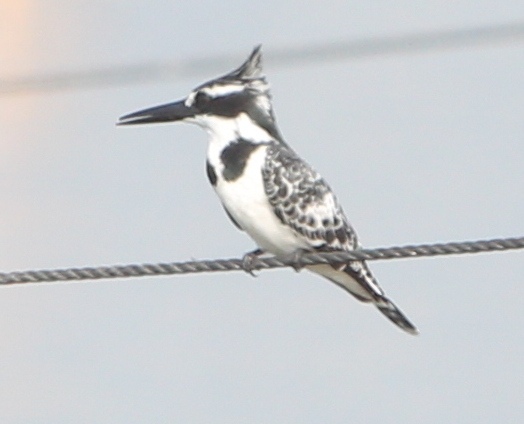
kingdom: Animalia
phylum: Chordata
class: Aves
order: Coraciiformes
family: Alcedinidae
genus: Ceryle
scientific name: Ceryle rudis
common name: Pied kingfisher
